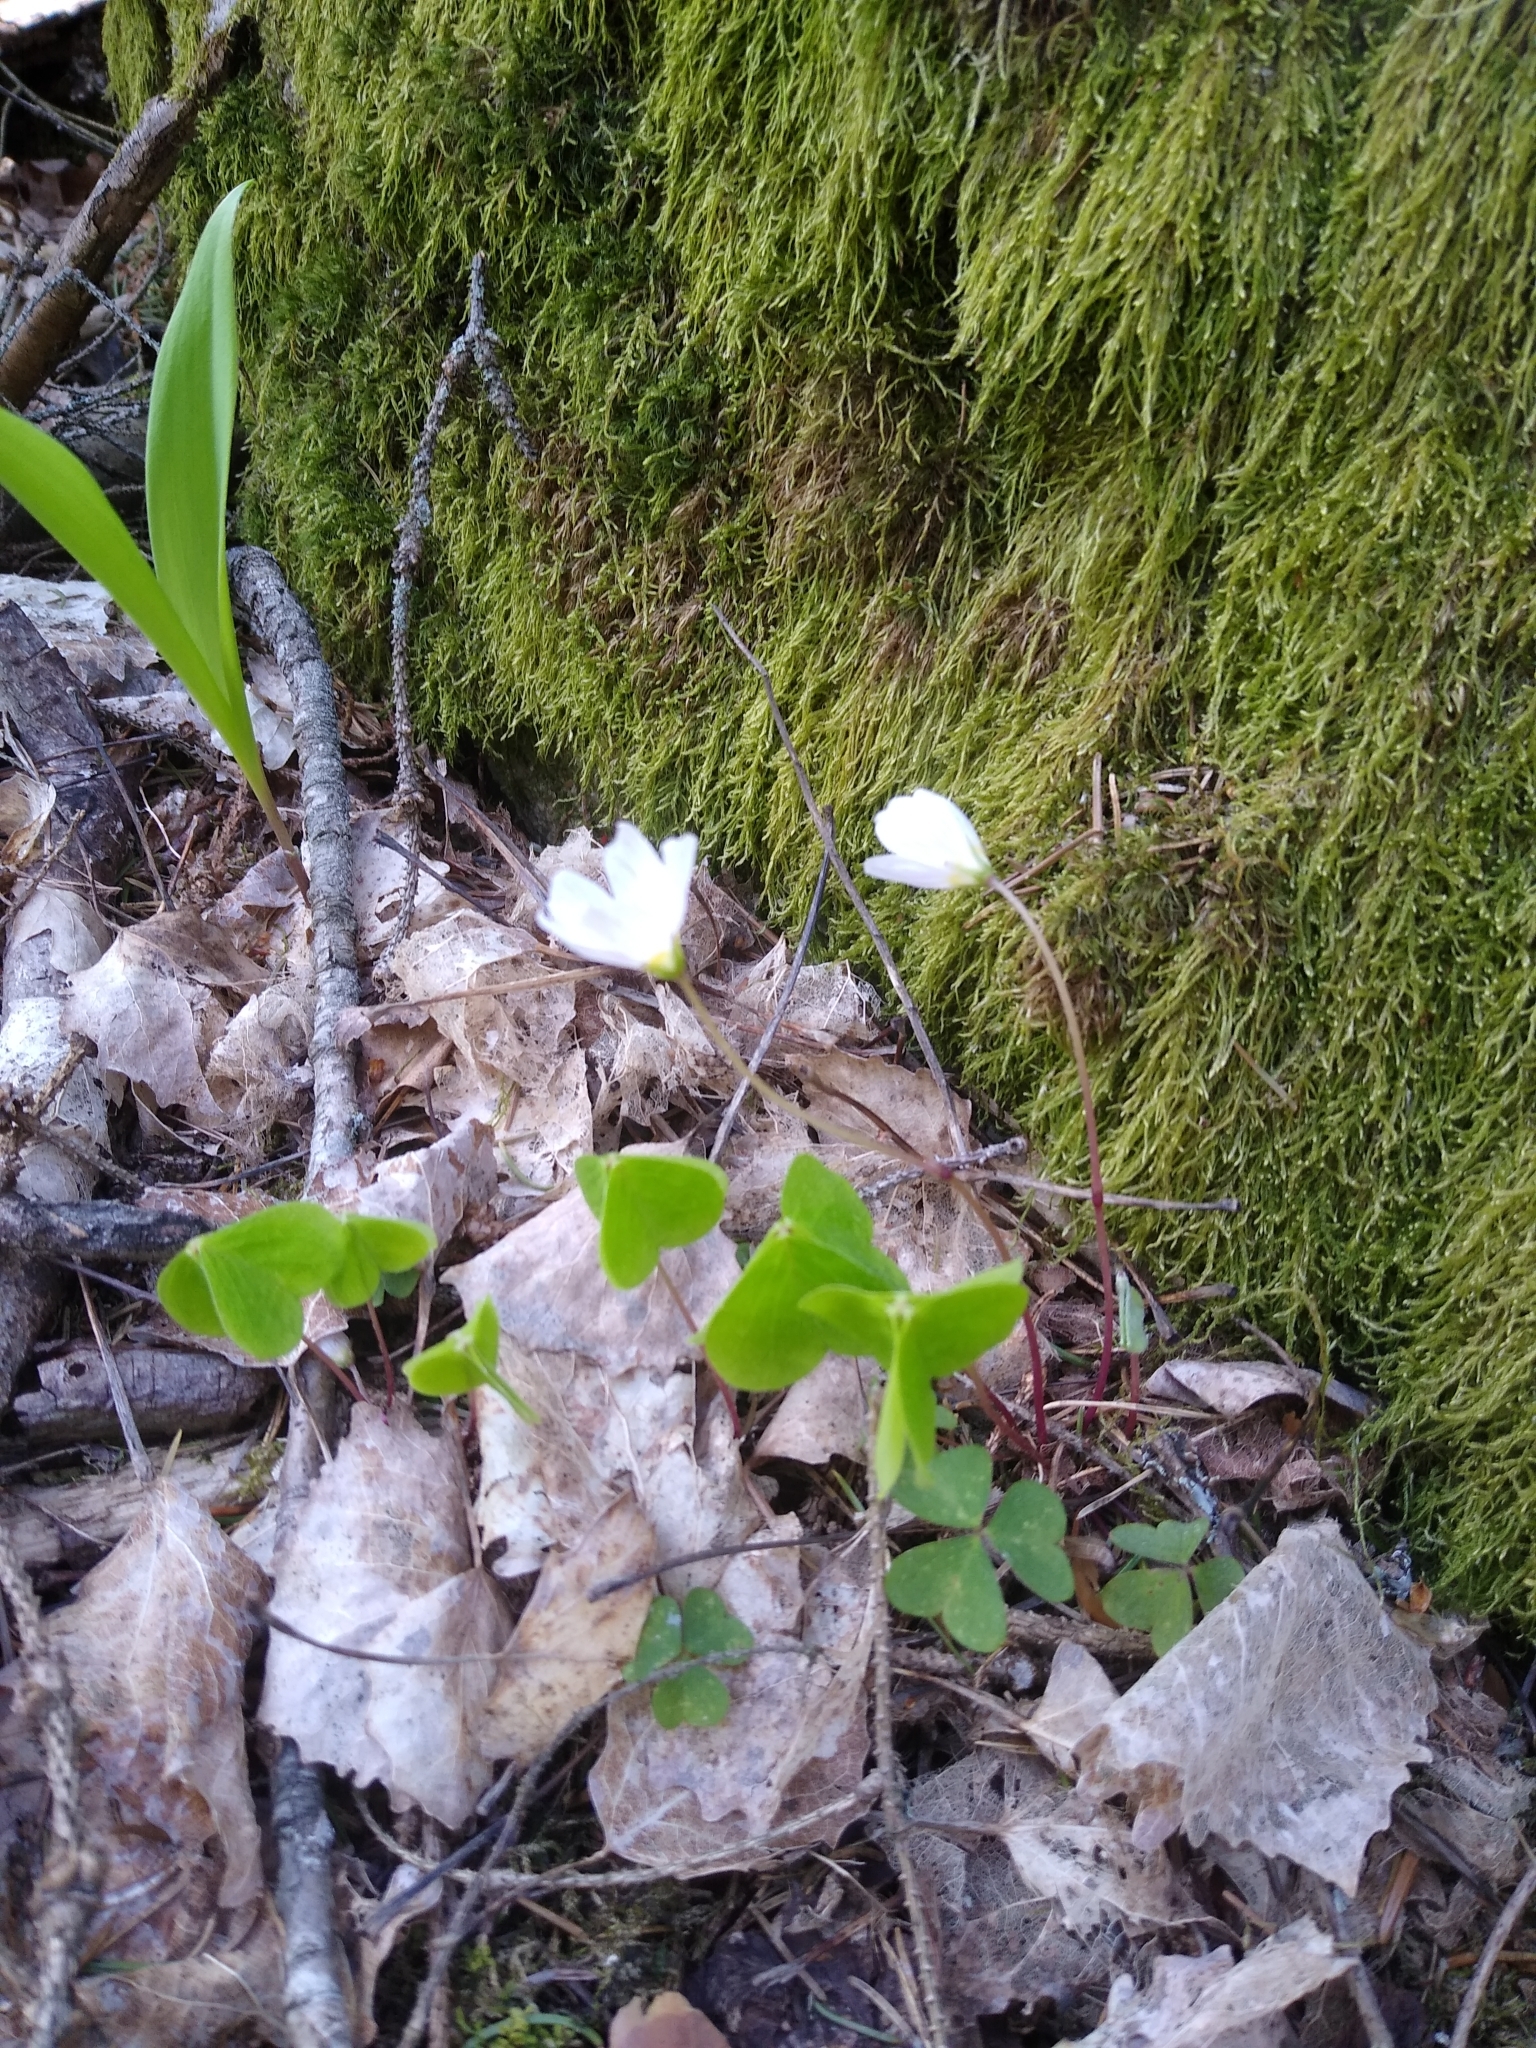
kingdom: Plantae
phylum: Tracheophyta
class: Magnoliopsida
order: Oxalidales
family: Oxalidaceae
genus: Oxalis
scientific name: Oxalis acetosella
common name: Wood-sorrel
